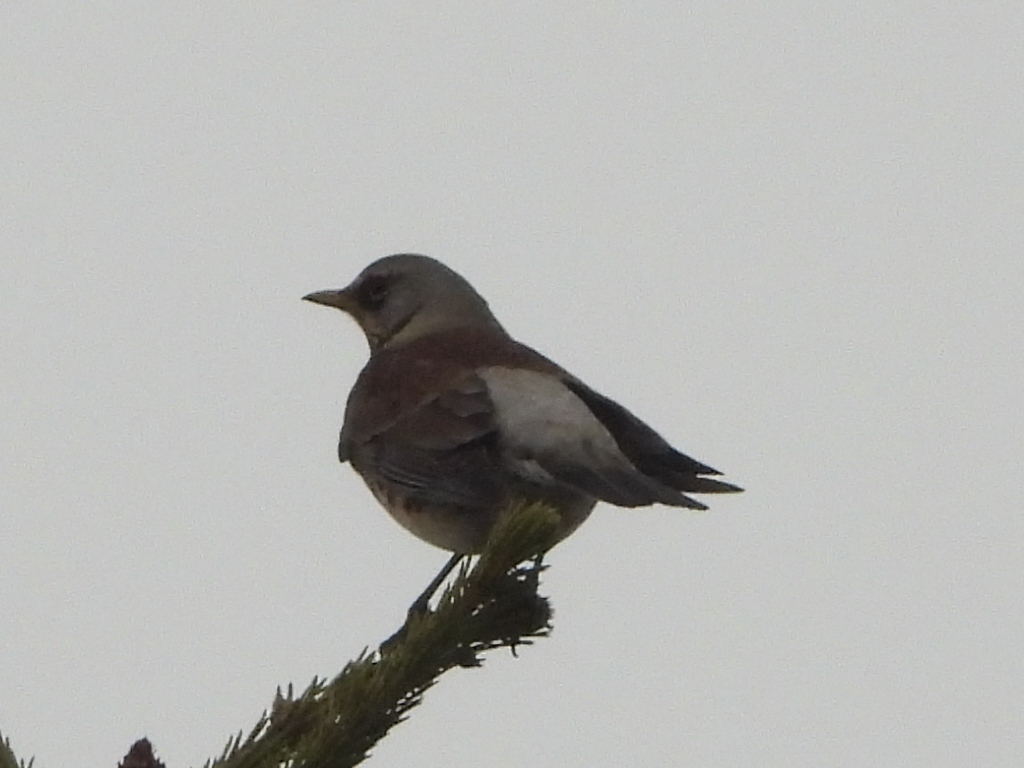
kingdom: Animalia
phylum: Chordata
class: Aves
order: Passeriformes
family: Turdidae
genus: Turdus
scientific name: Turdus pilaris
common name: Fieldfare
